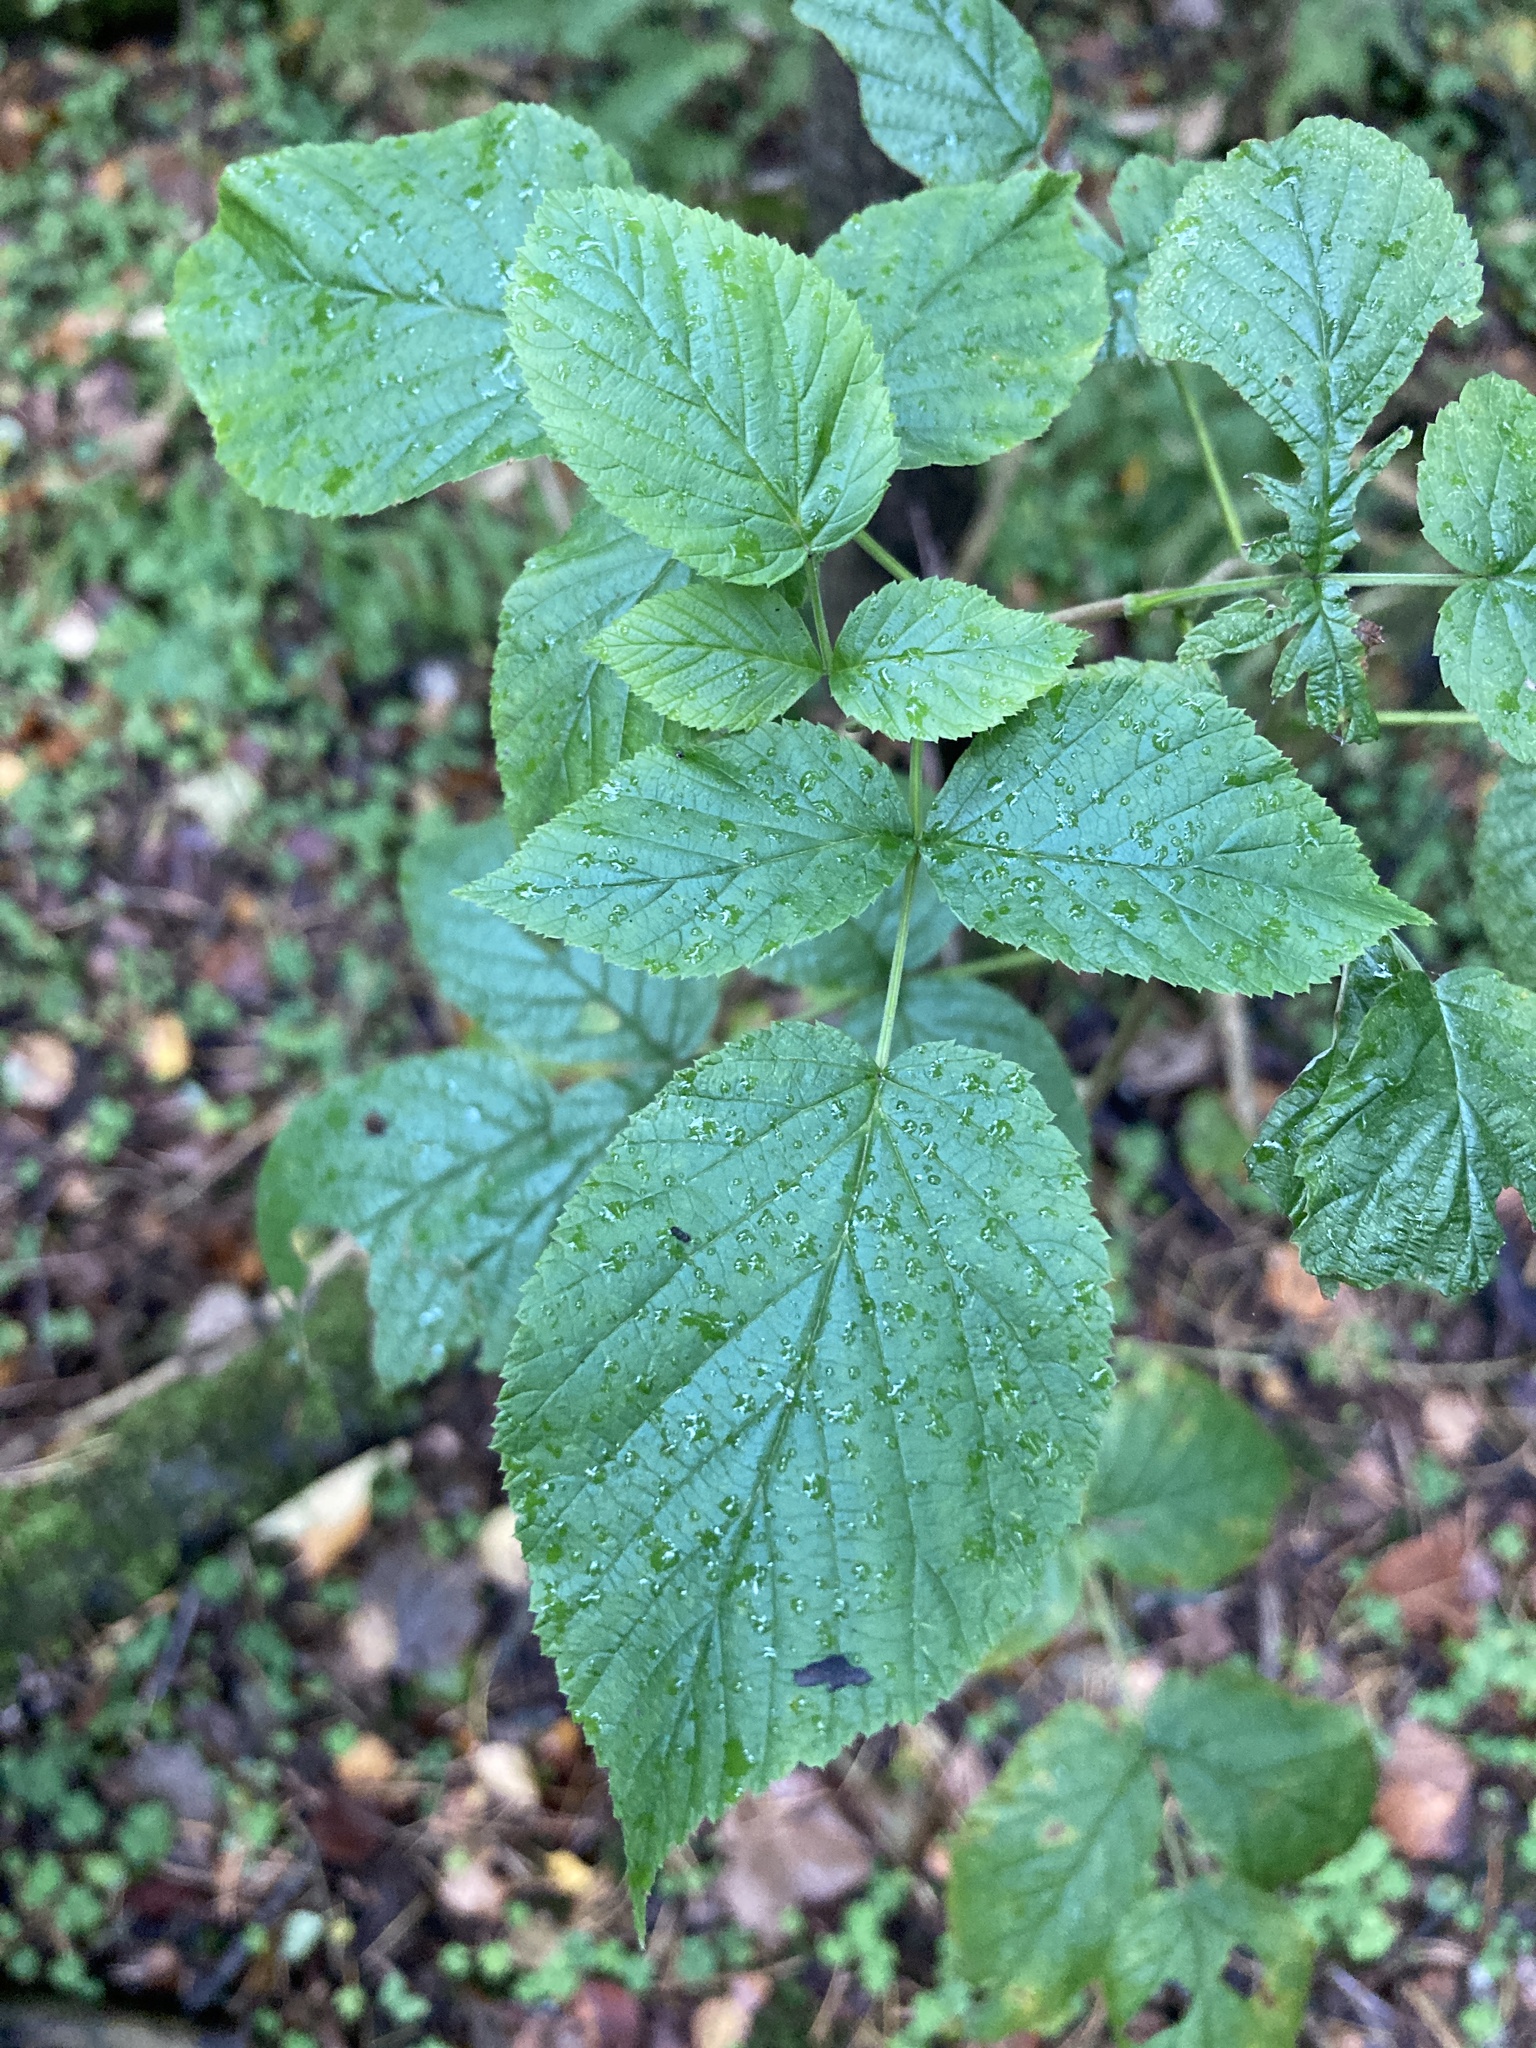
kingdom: Plantae
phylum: Tracheophyta
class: Magnoliopsida
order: Rosales
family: Rosaceae
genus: Rubus
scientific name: Rubus idaeus
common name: Raspberry
